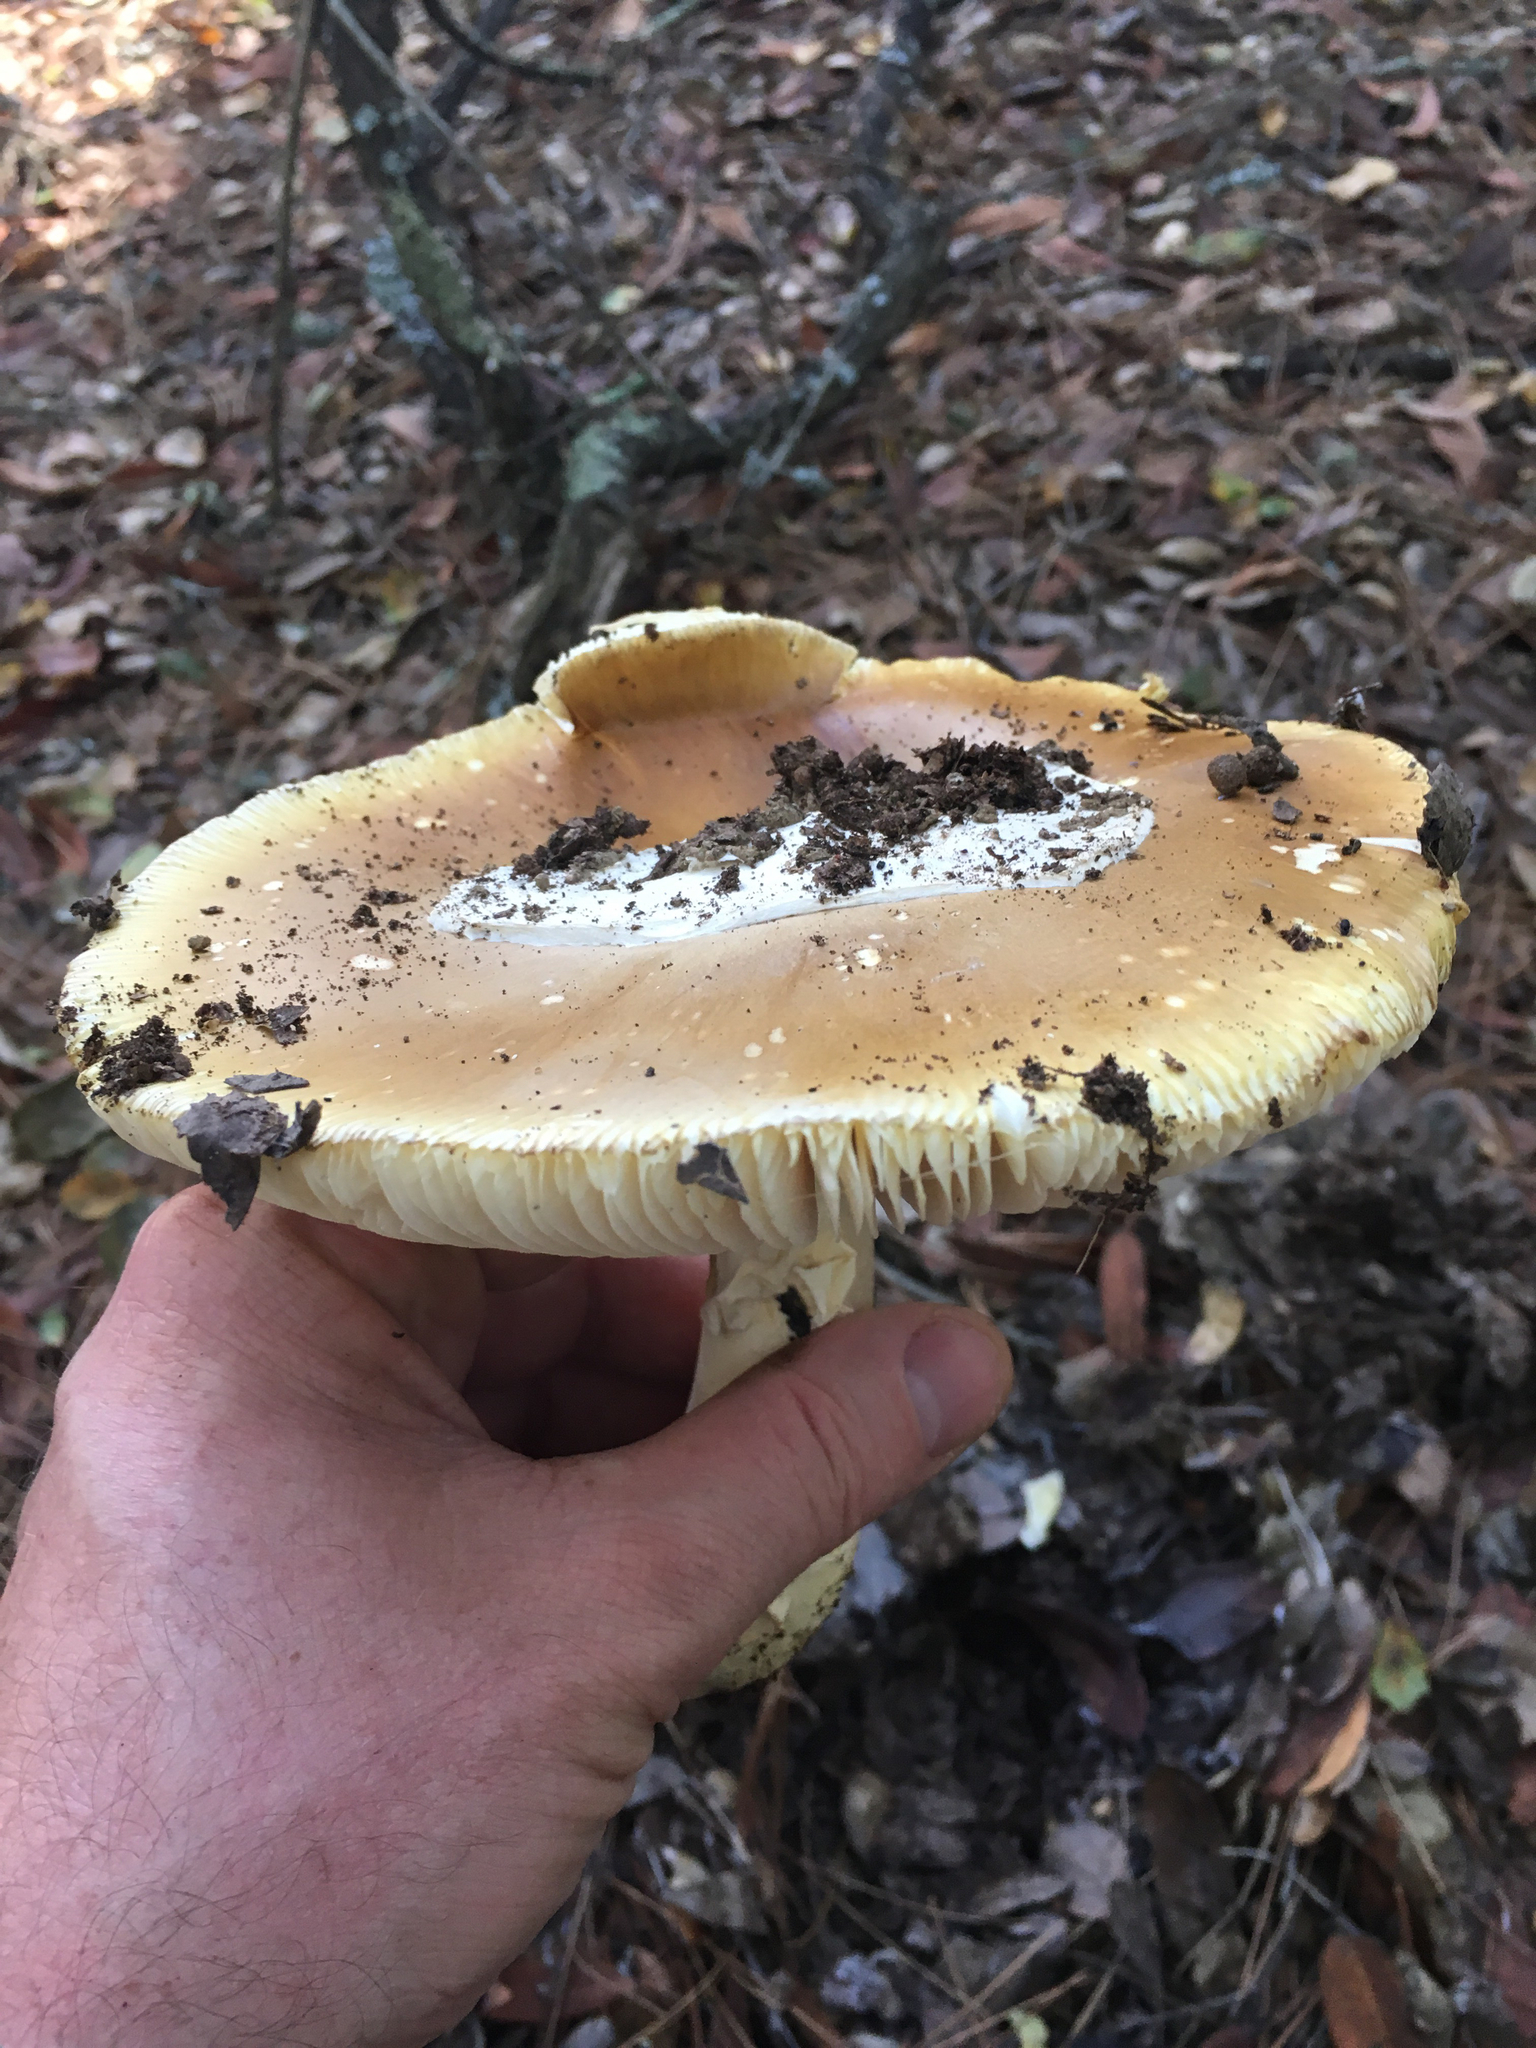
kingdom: Fungi
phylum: Basidiomycota
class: Agaricomycetes
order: Agaricales
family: Amanitaceae
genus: Amanita
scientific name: Amanita calyptroderma
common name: Coccora
